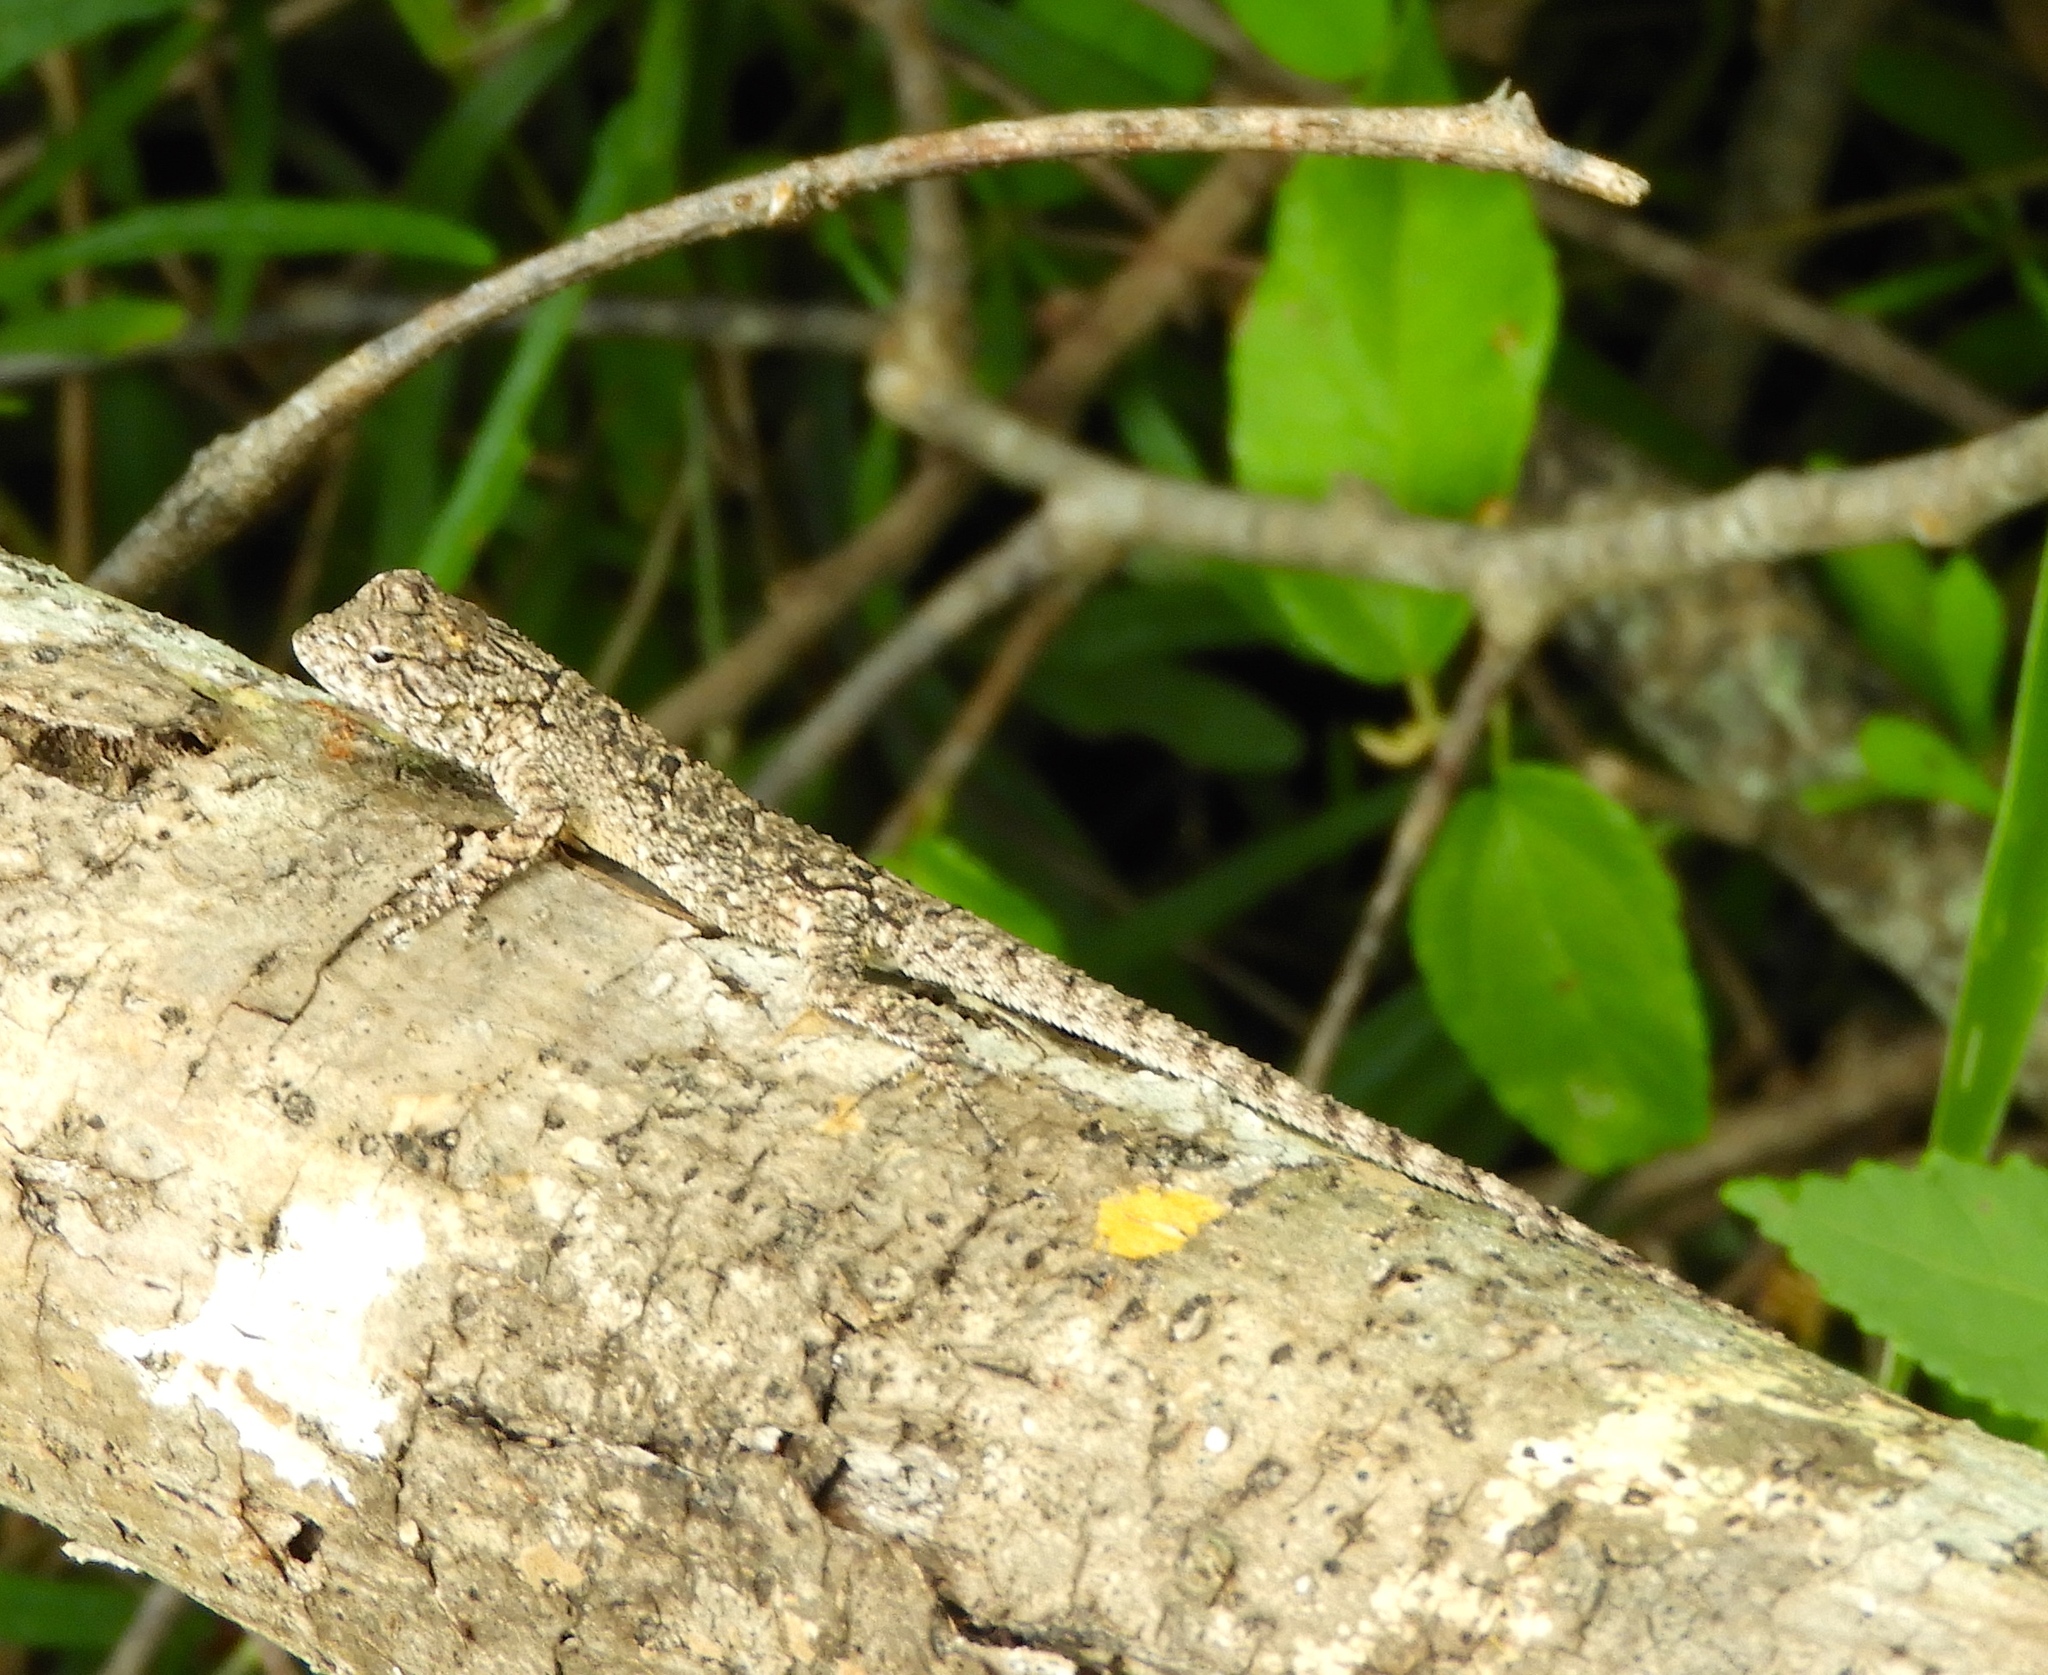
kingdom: Animalia
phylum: Chordata
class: Squamata
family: Phrynosomatidae
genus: Urosaurus
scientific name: Urosaurus bicarinatus
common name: Tropical tree lizard
